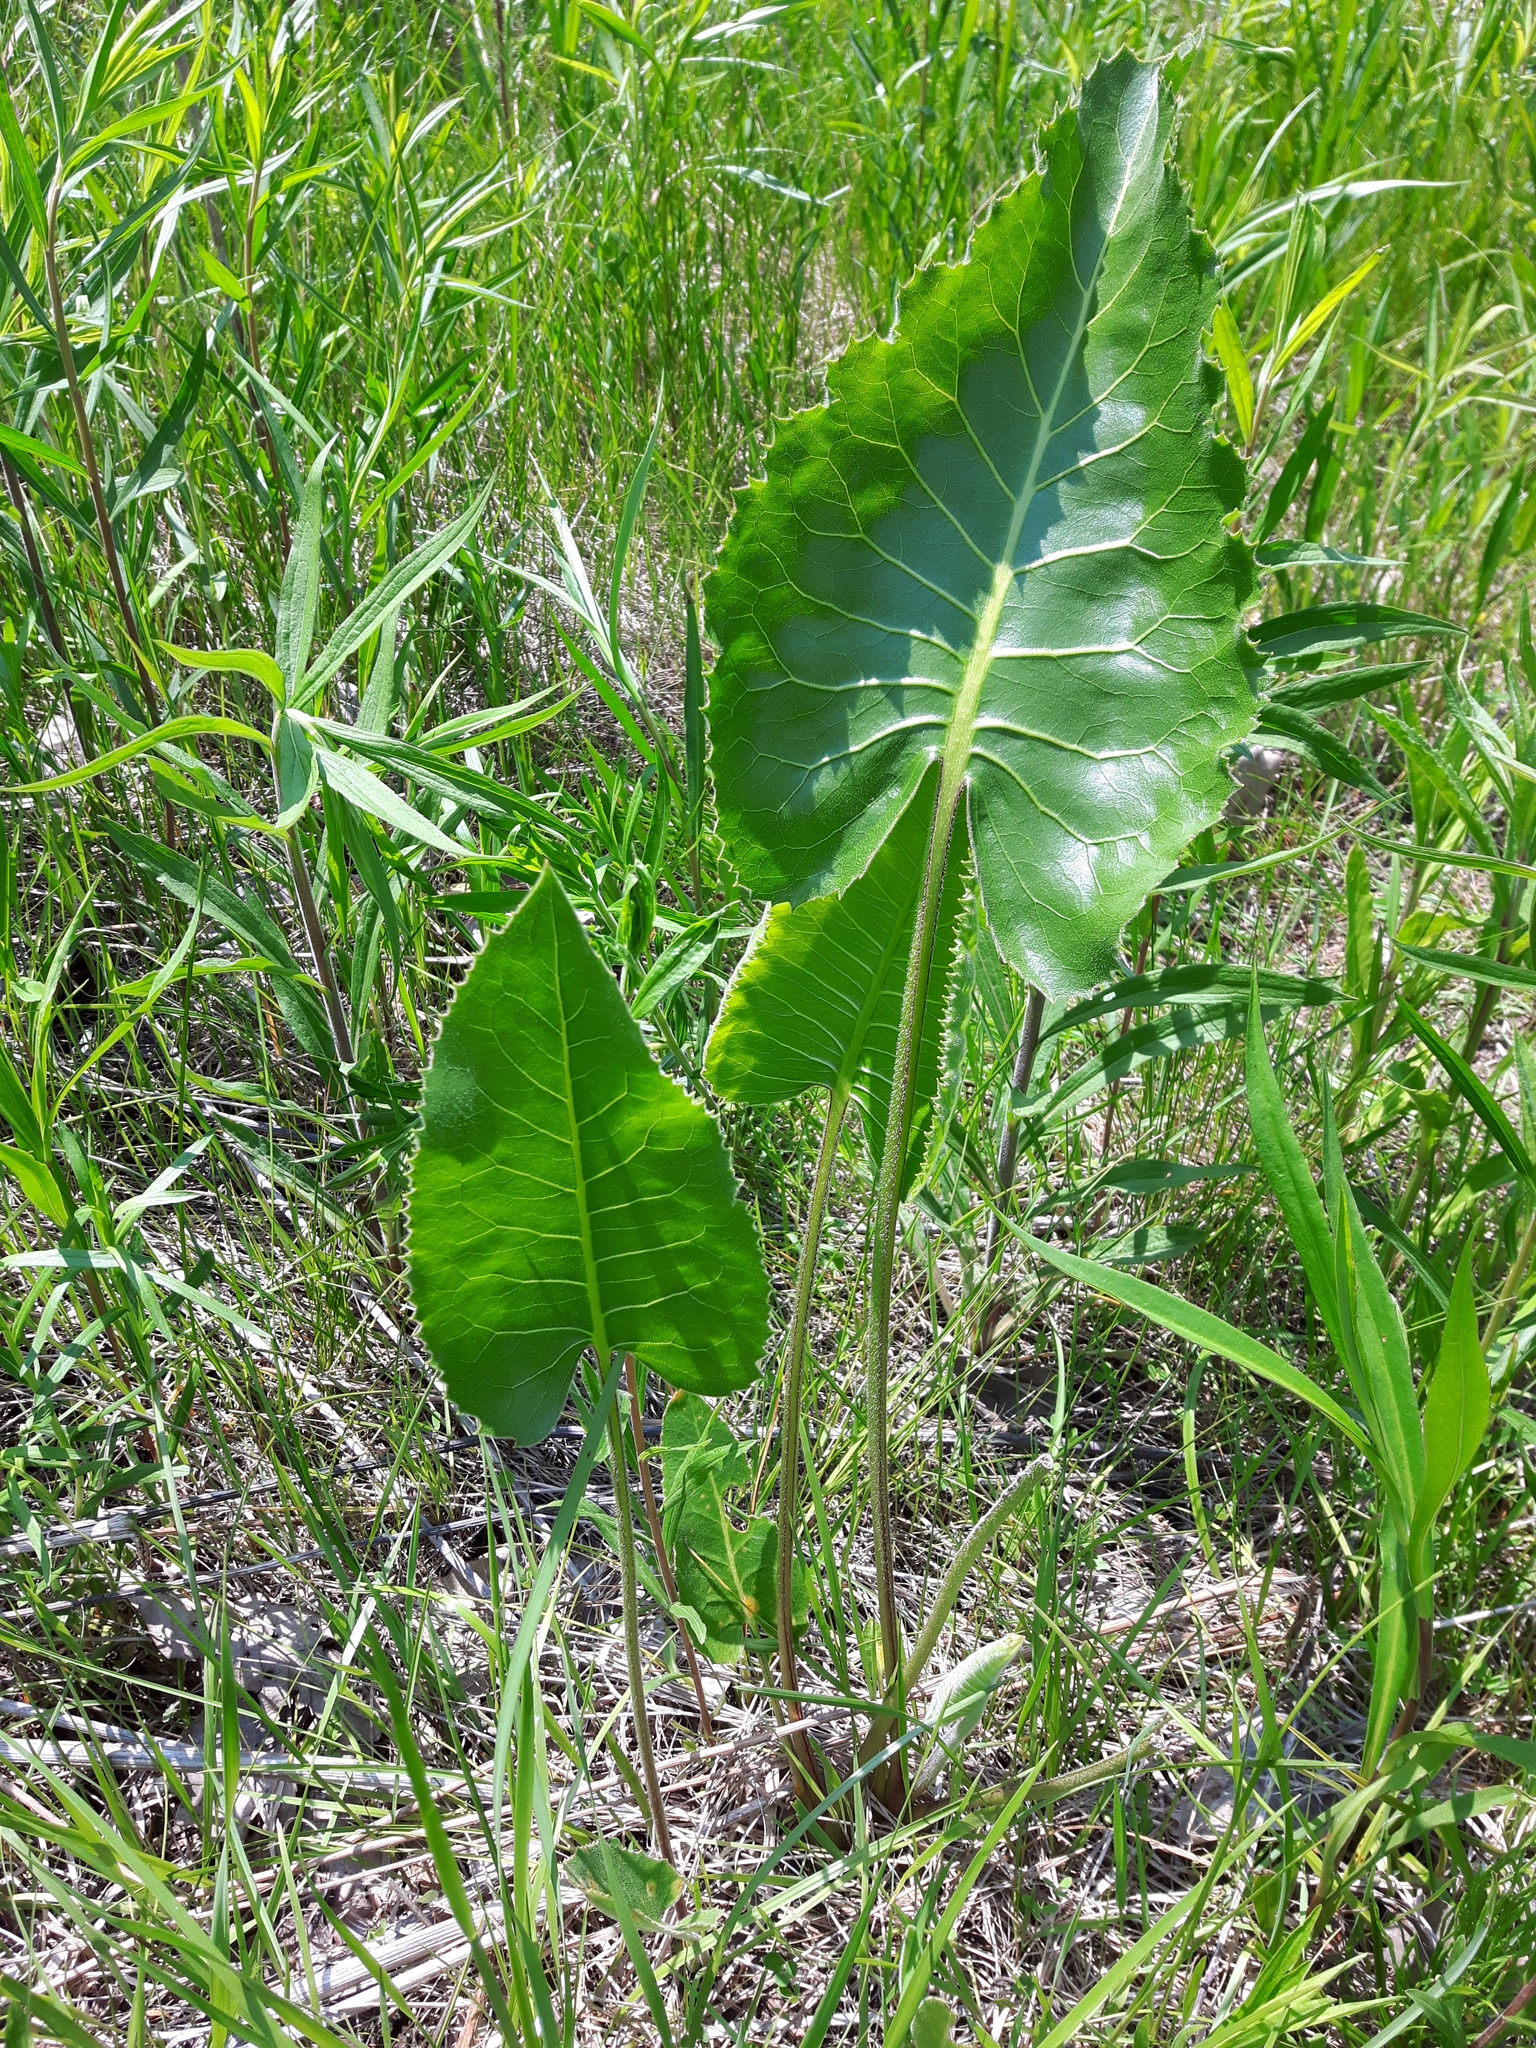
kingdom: Plantae
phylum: Tracheophyta
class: Magnoliopsida
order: Asterales
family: Asteraceae
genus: Silphium
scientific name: Silphium terebinthinaceum
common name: Basal-leaf rosinweed
